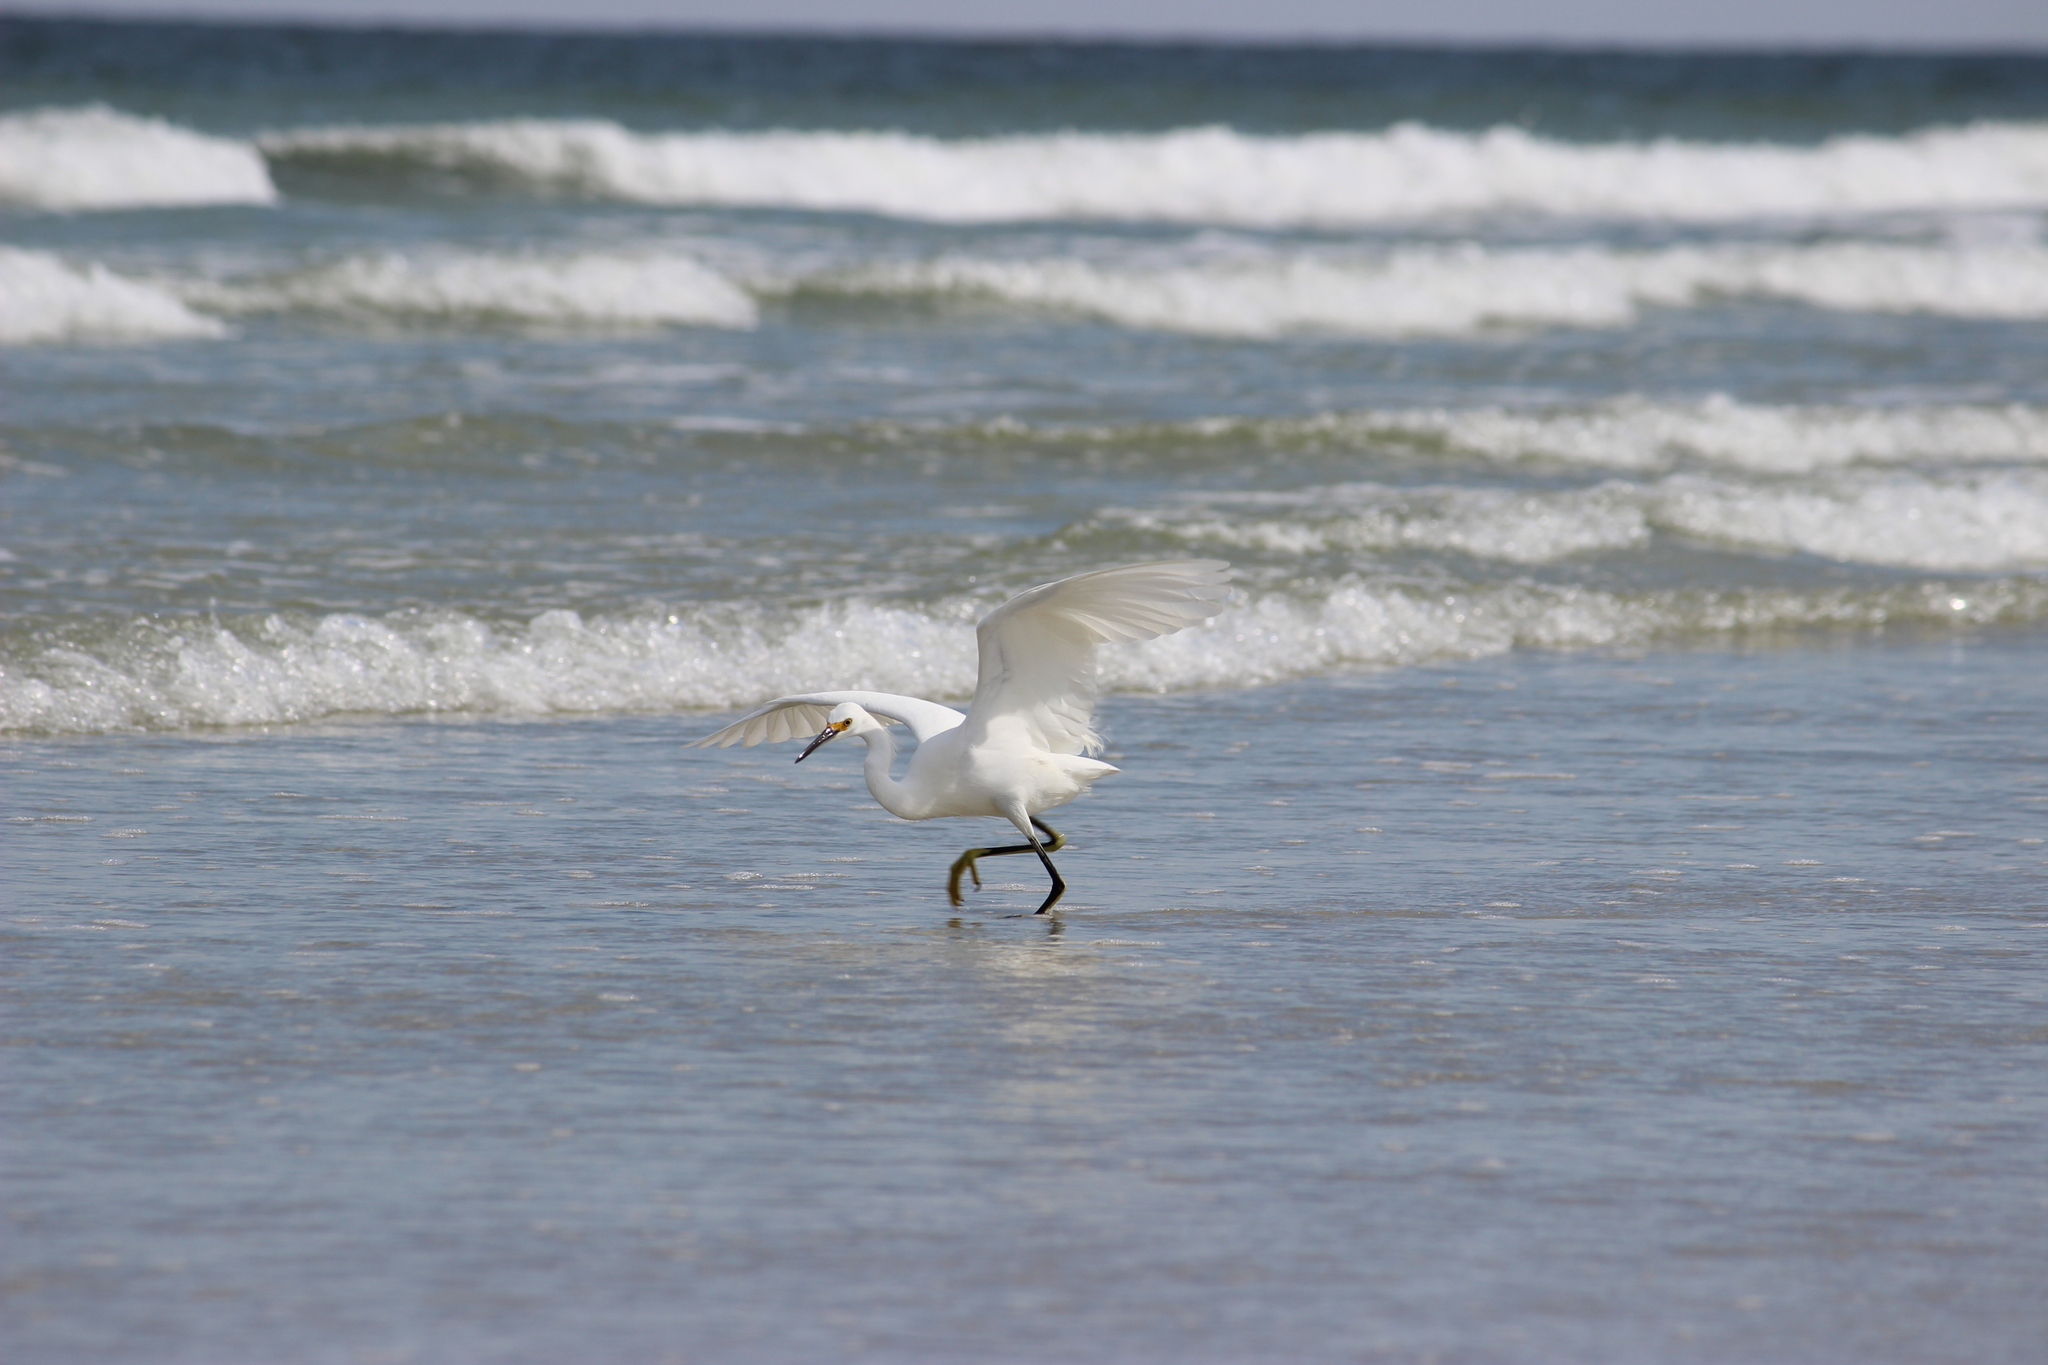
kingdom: Animalia
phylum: Chordata
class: Aves
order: Pelecaniformes
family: Ardeidae
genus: Egretta
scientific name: Egretta thula
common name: Snowy egret
